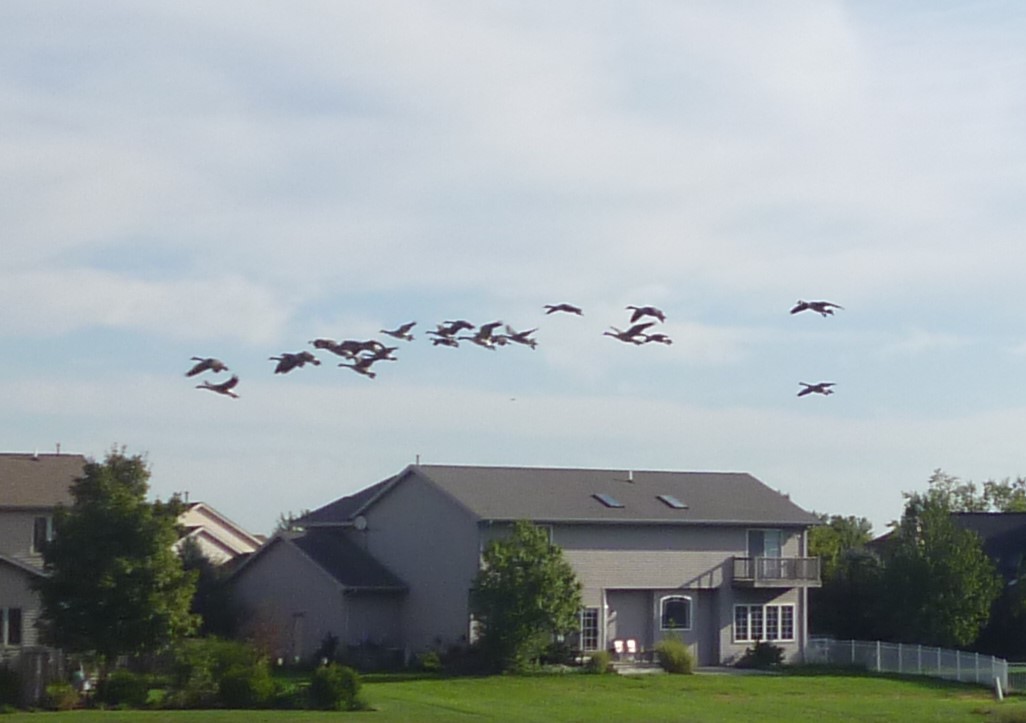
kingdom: Animalia
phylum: Chordata
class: Aves
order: Anseriformes
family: Anatidae
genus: Branta
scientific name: Branta canadensis
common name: Canada goose
